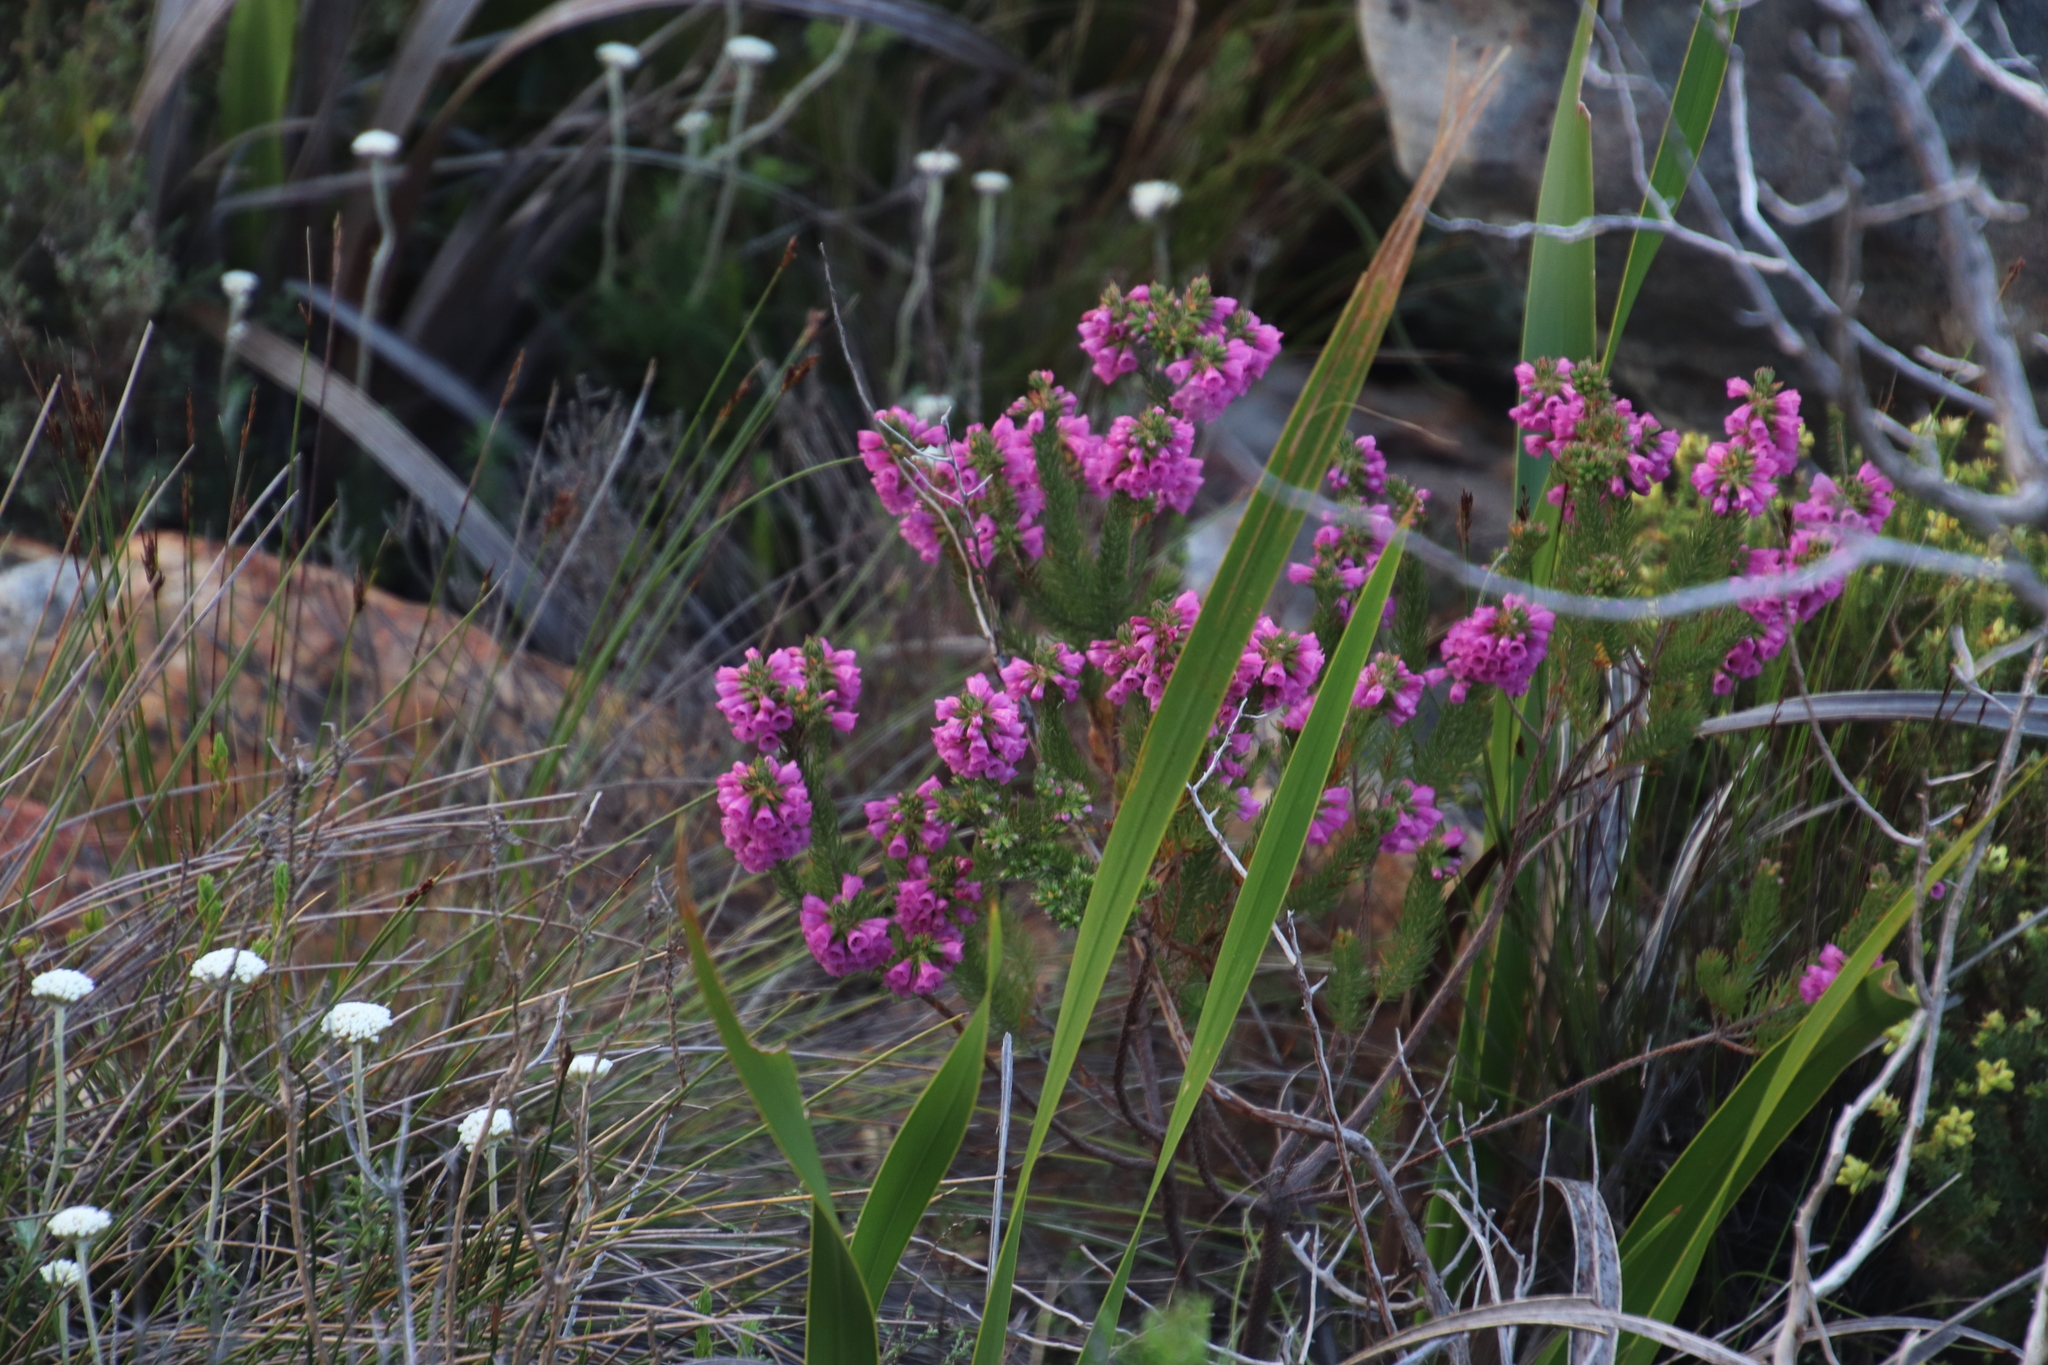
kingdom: Plantae
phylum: Tracheophyta
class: Magnoliopsida
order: Ericales
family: Ericaceae
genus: Erica
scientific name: Erica abietina
